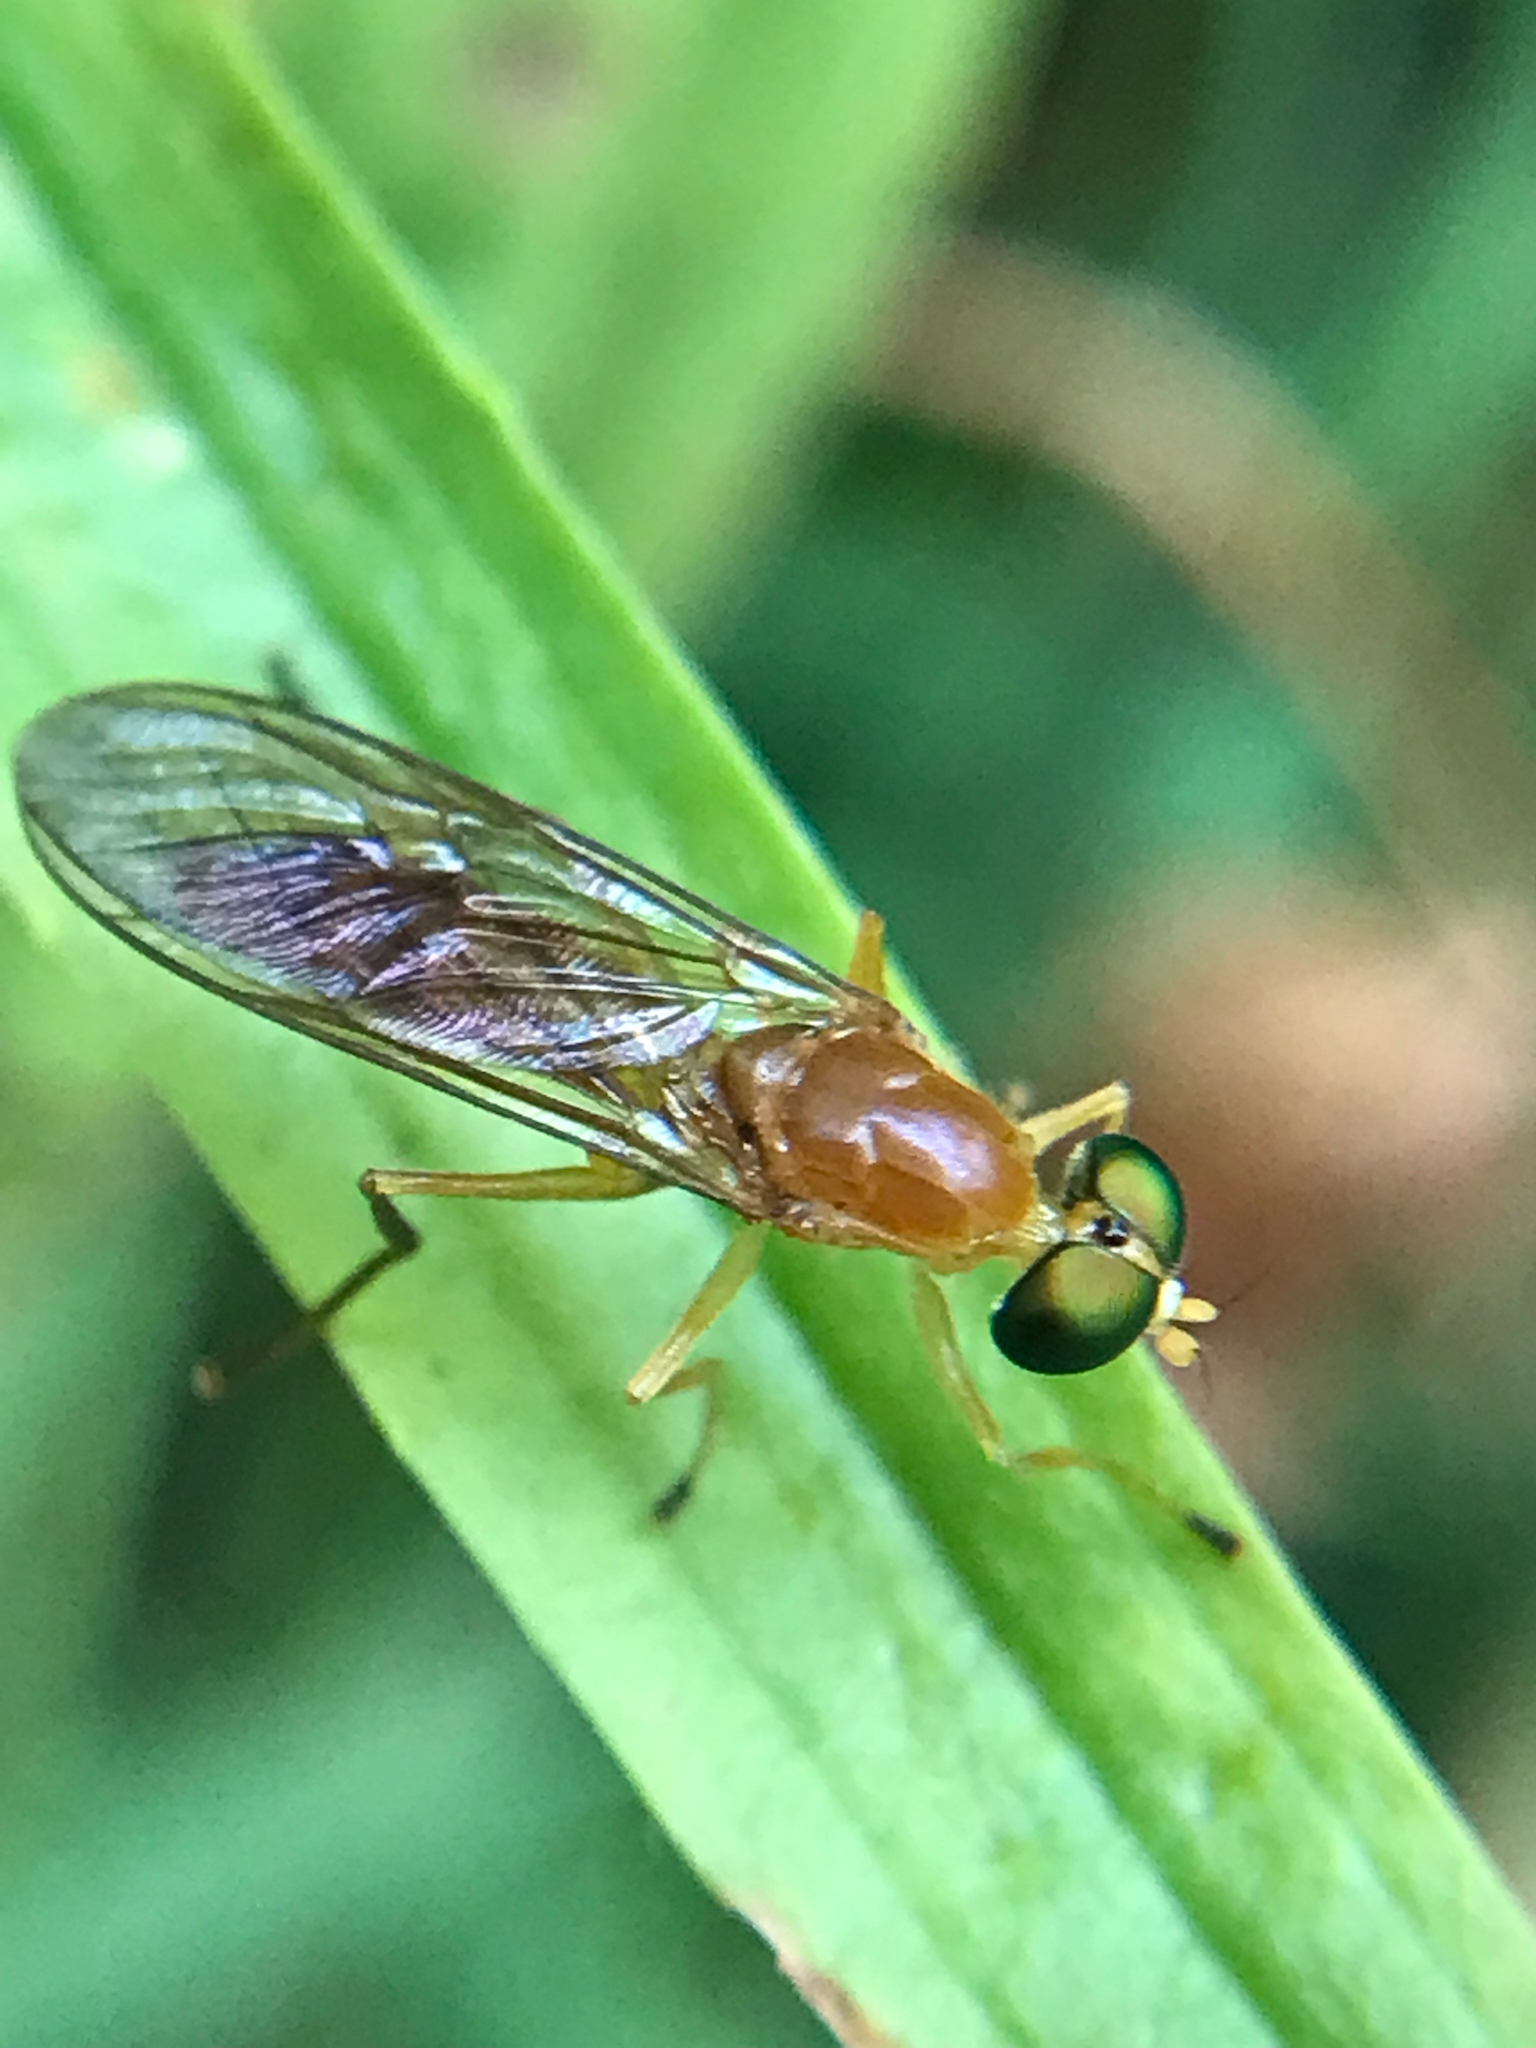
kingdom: Animalia
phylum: Arthropoda
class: Insecta
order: Diptera
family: Stratiomyidae
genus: Ptecticus
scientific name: Ptecticus trivittatus
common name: Compost fly
